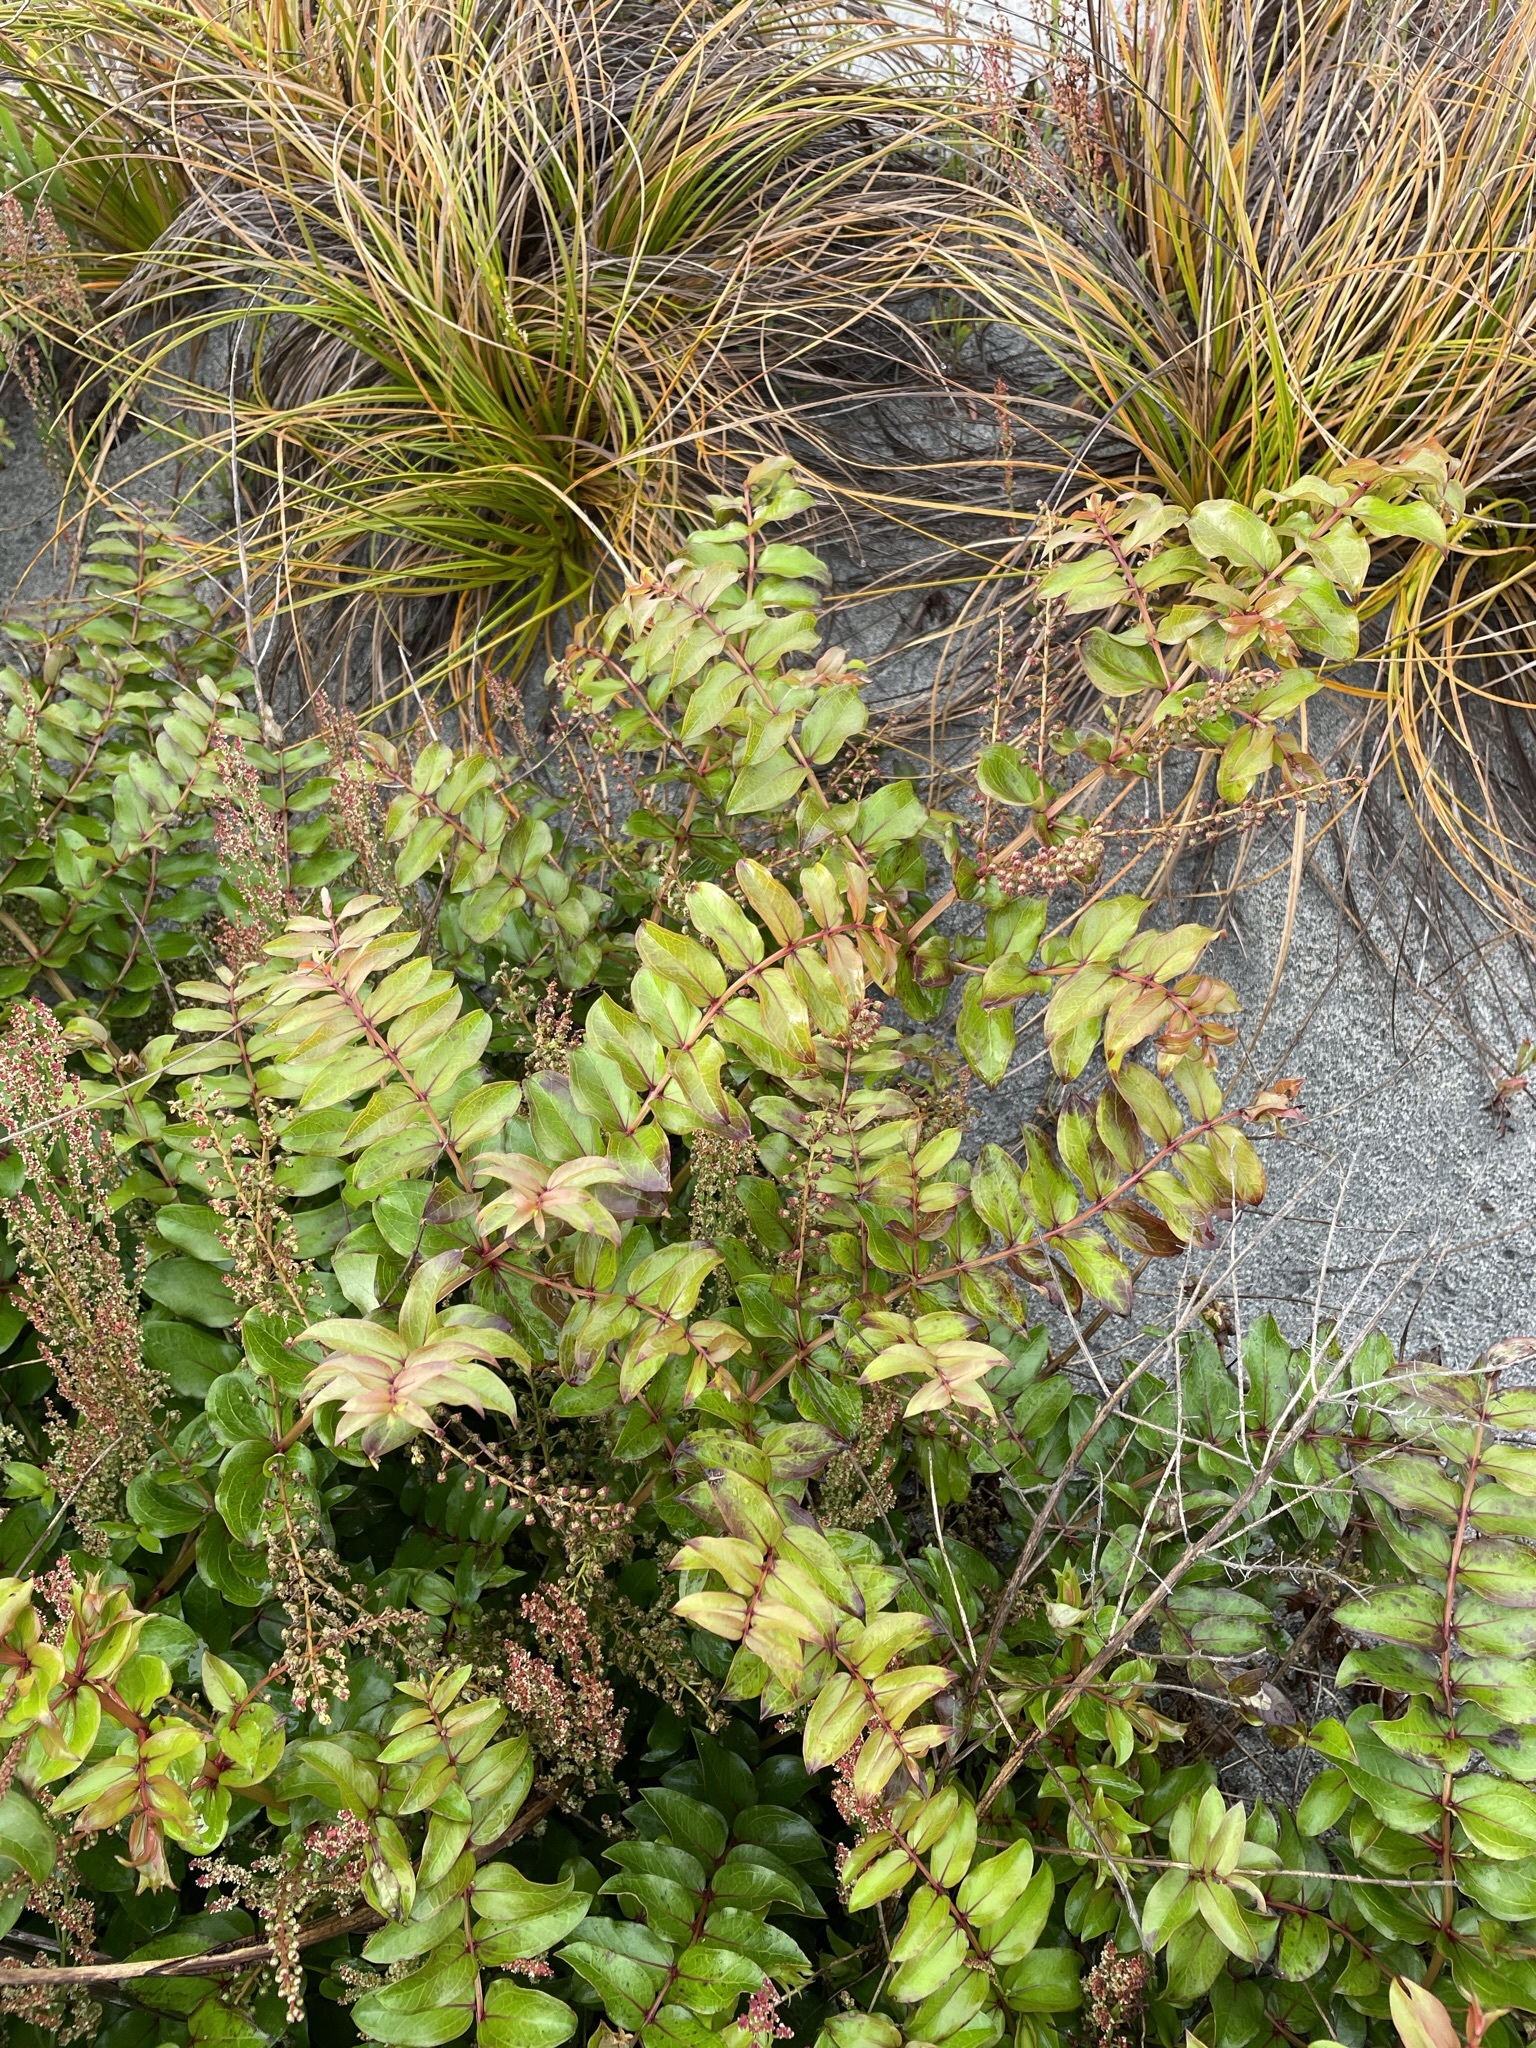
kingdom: Plantae
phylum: Tracheophyta
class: Magnoliopsida
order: Cucurbitales
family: Coriariaceae
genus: Coriaria
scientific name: Coriaria sarmentosa
